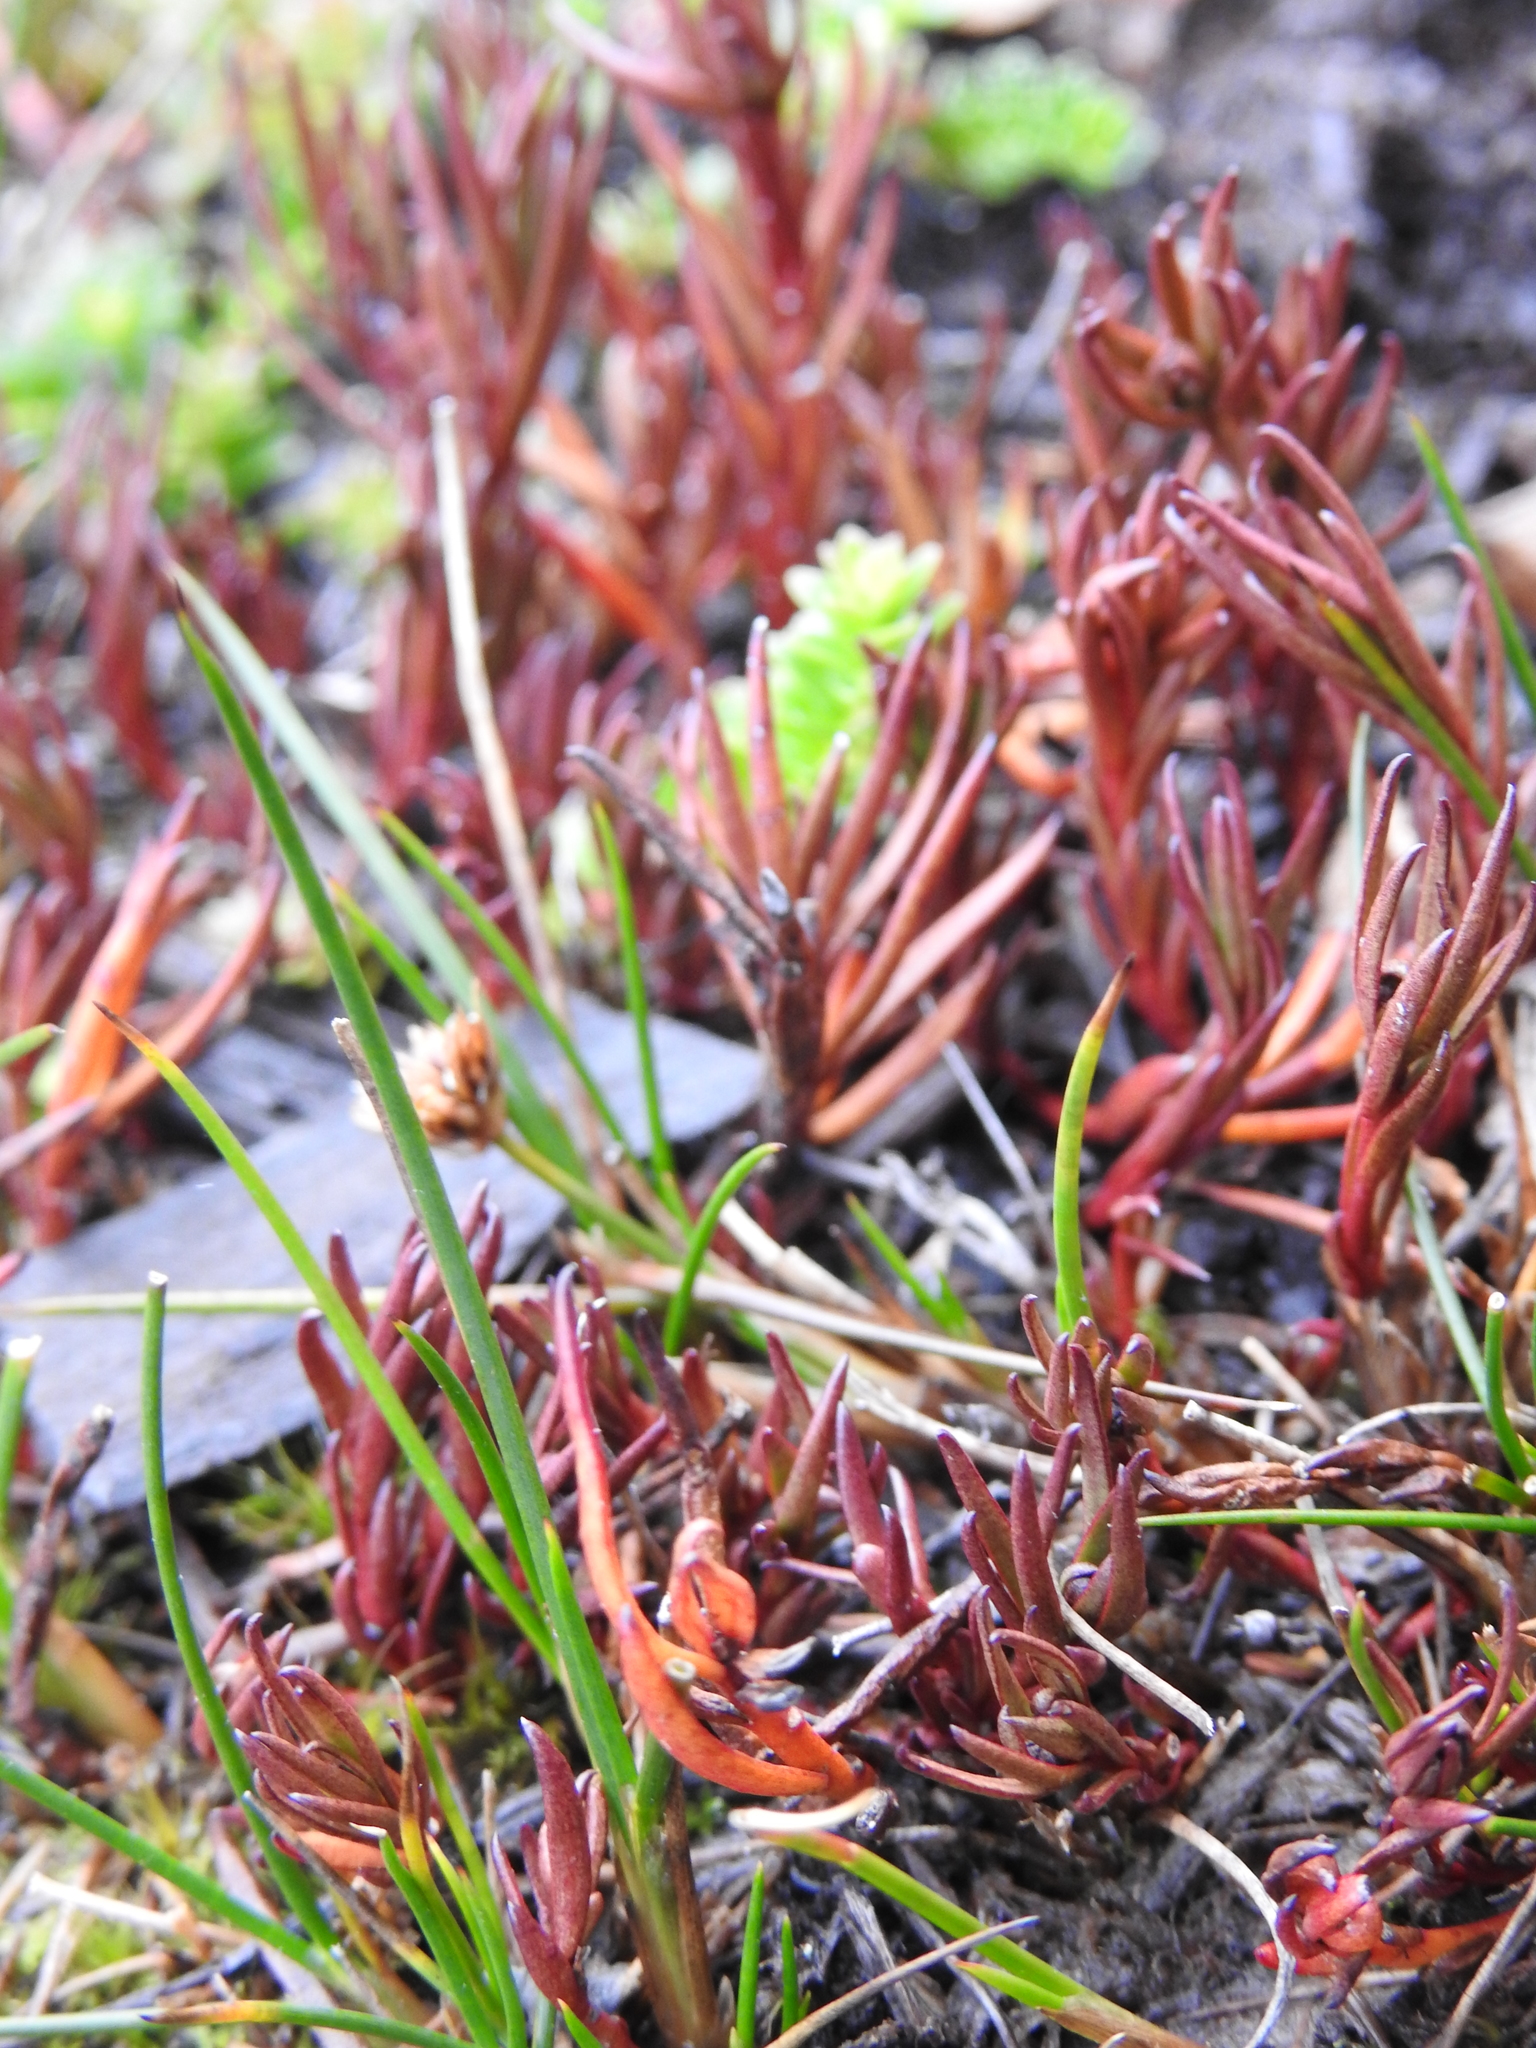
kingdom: Plantae
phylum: Tracheophyta
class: Magnoliopsida
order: Santalales
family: Nanodeaceae
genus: Nanodea
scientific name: Nanodea muscosa
